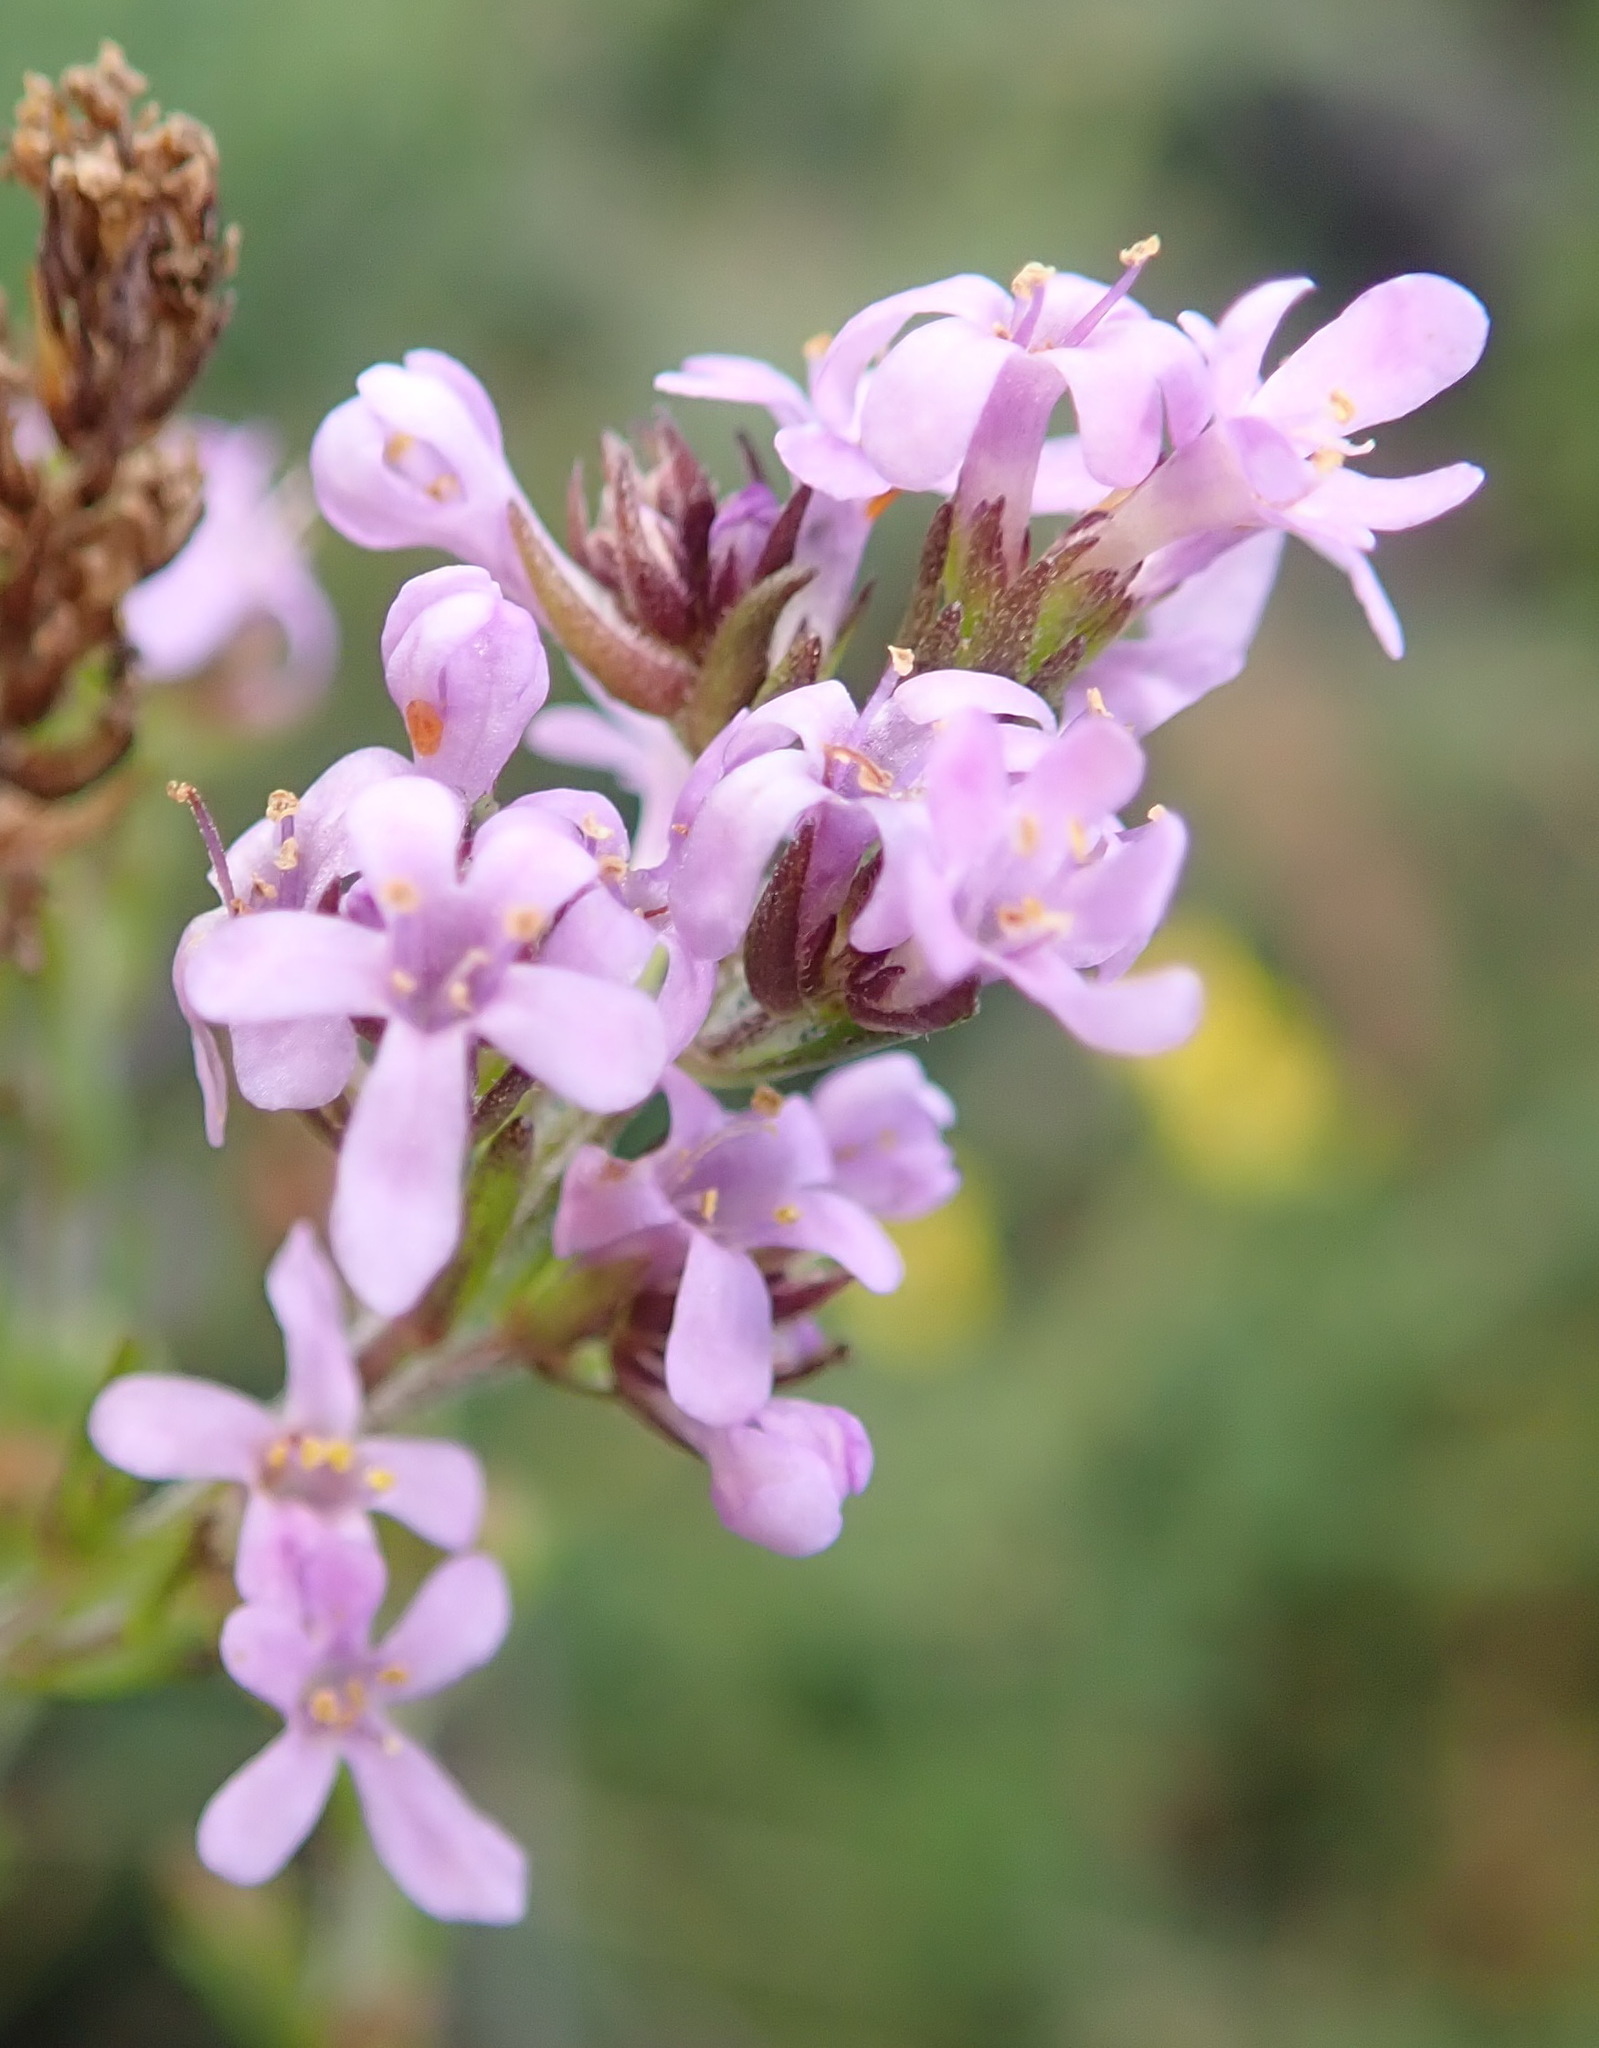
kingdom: Plantae
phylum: Tracheophyta
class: Magnoliopsida
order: Lamiales
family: Scrophulariaceae
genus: Selago
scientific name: Selago villicaulis
